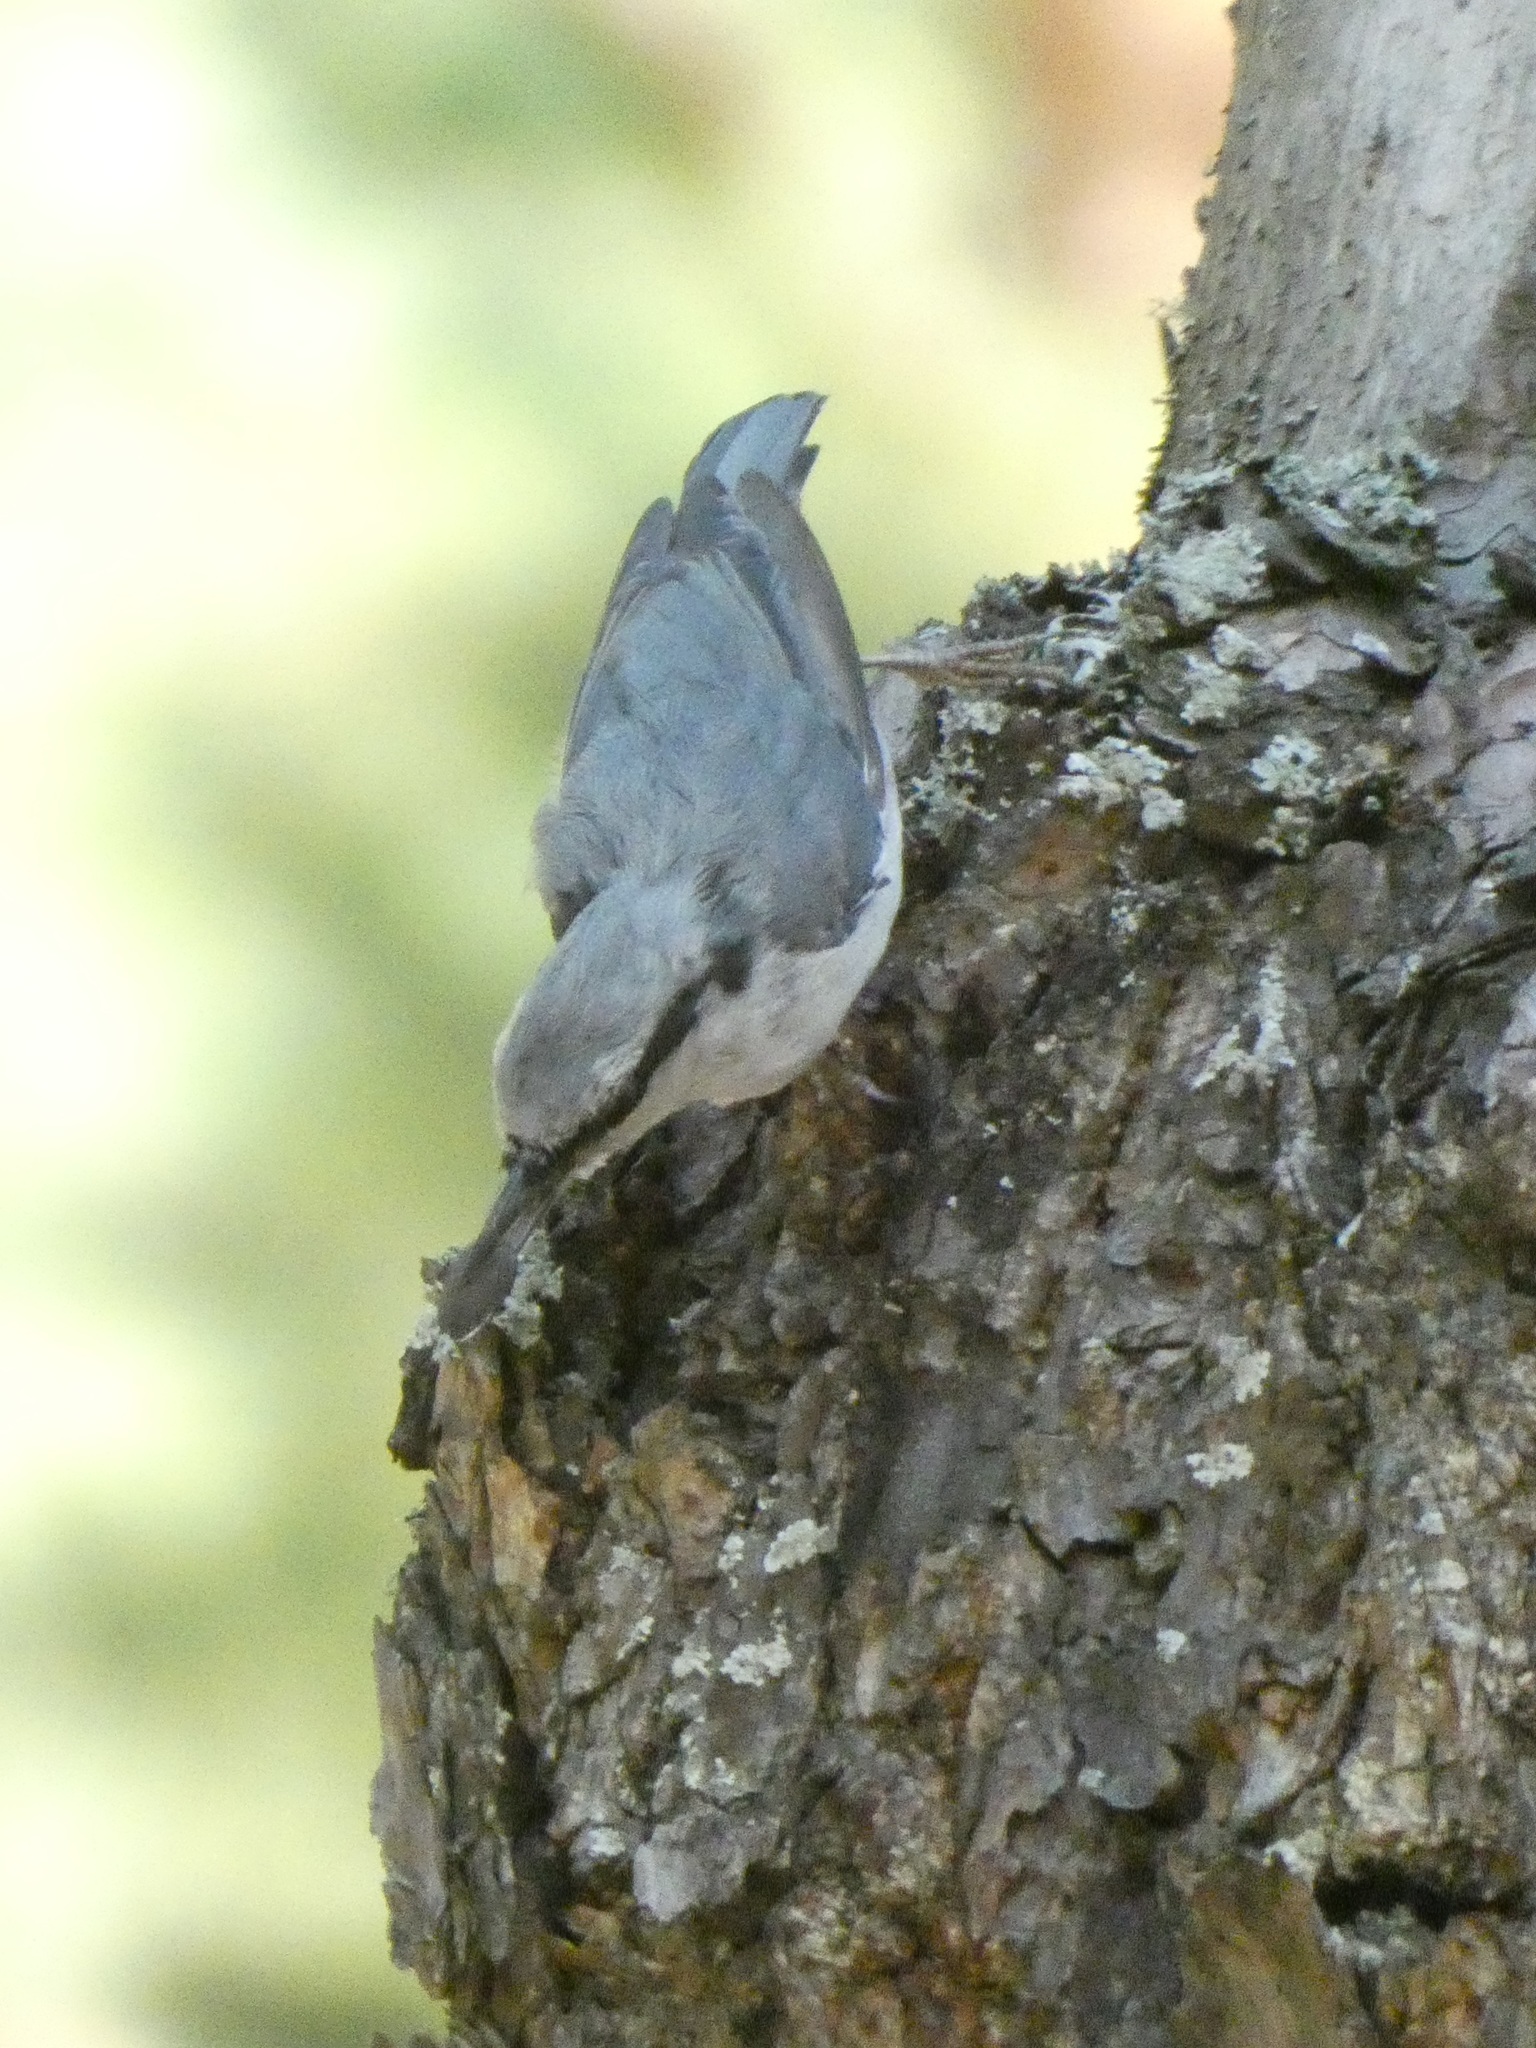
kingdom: Animalia
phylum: Chordata
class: Aves
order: Passeriformes
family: Sittidae
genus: Sitta
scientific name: Sitta europaea
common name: Eurasian nuthatch
